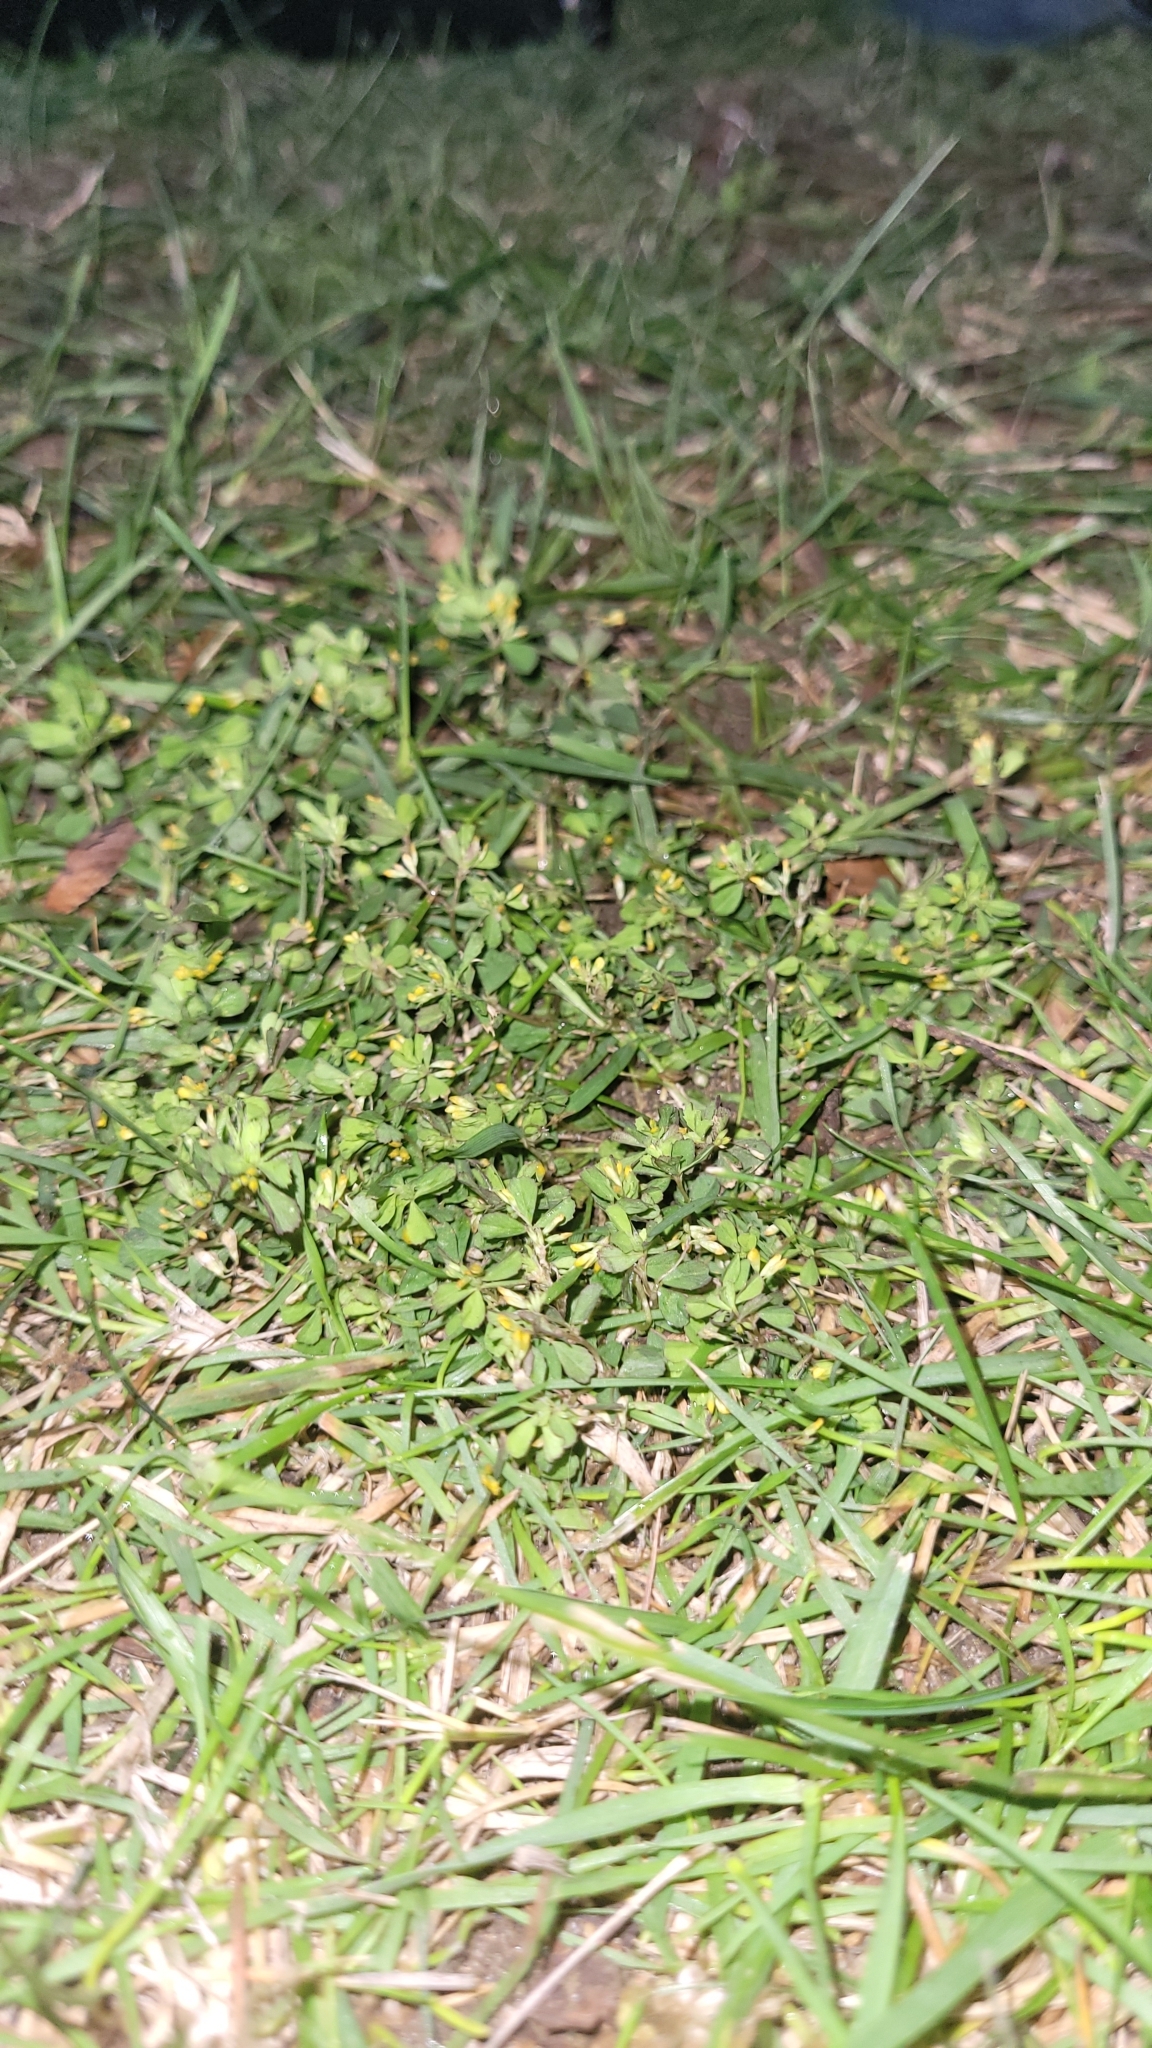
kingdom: Plantae
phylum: Tracheophyta
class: Magnoliopsida
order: Fabales
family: Fabaceae
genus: Trifolium
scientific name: Trifolium dubium
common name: Suckling clover
